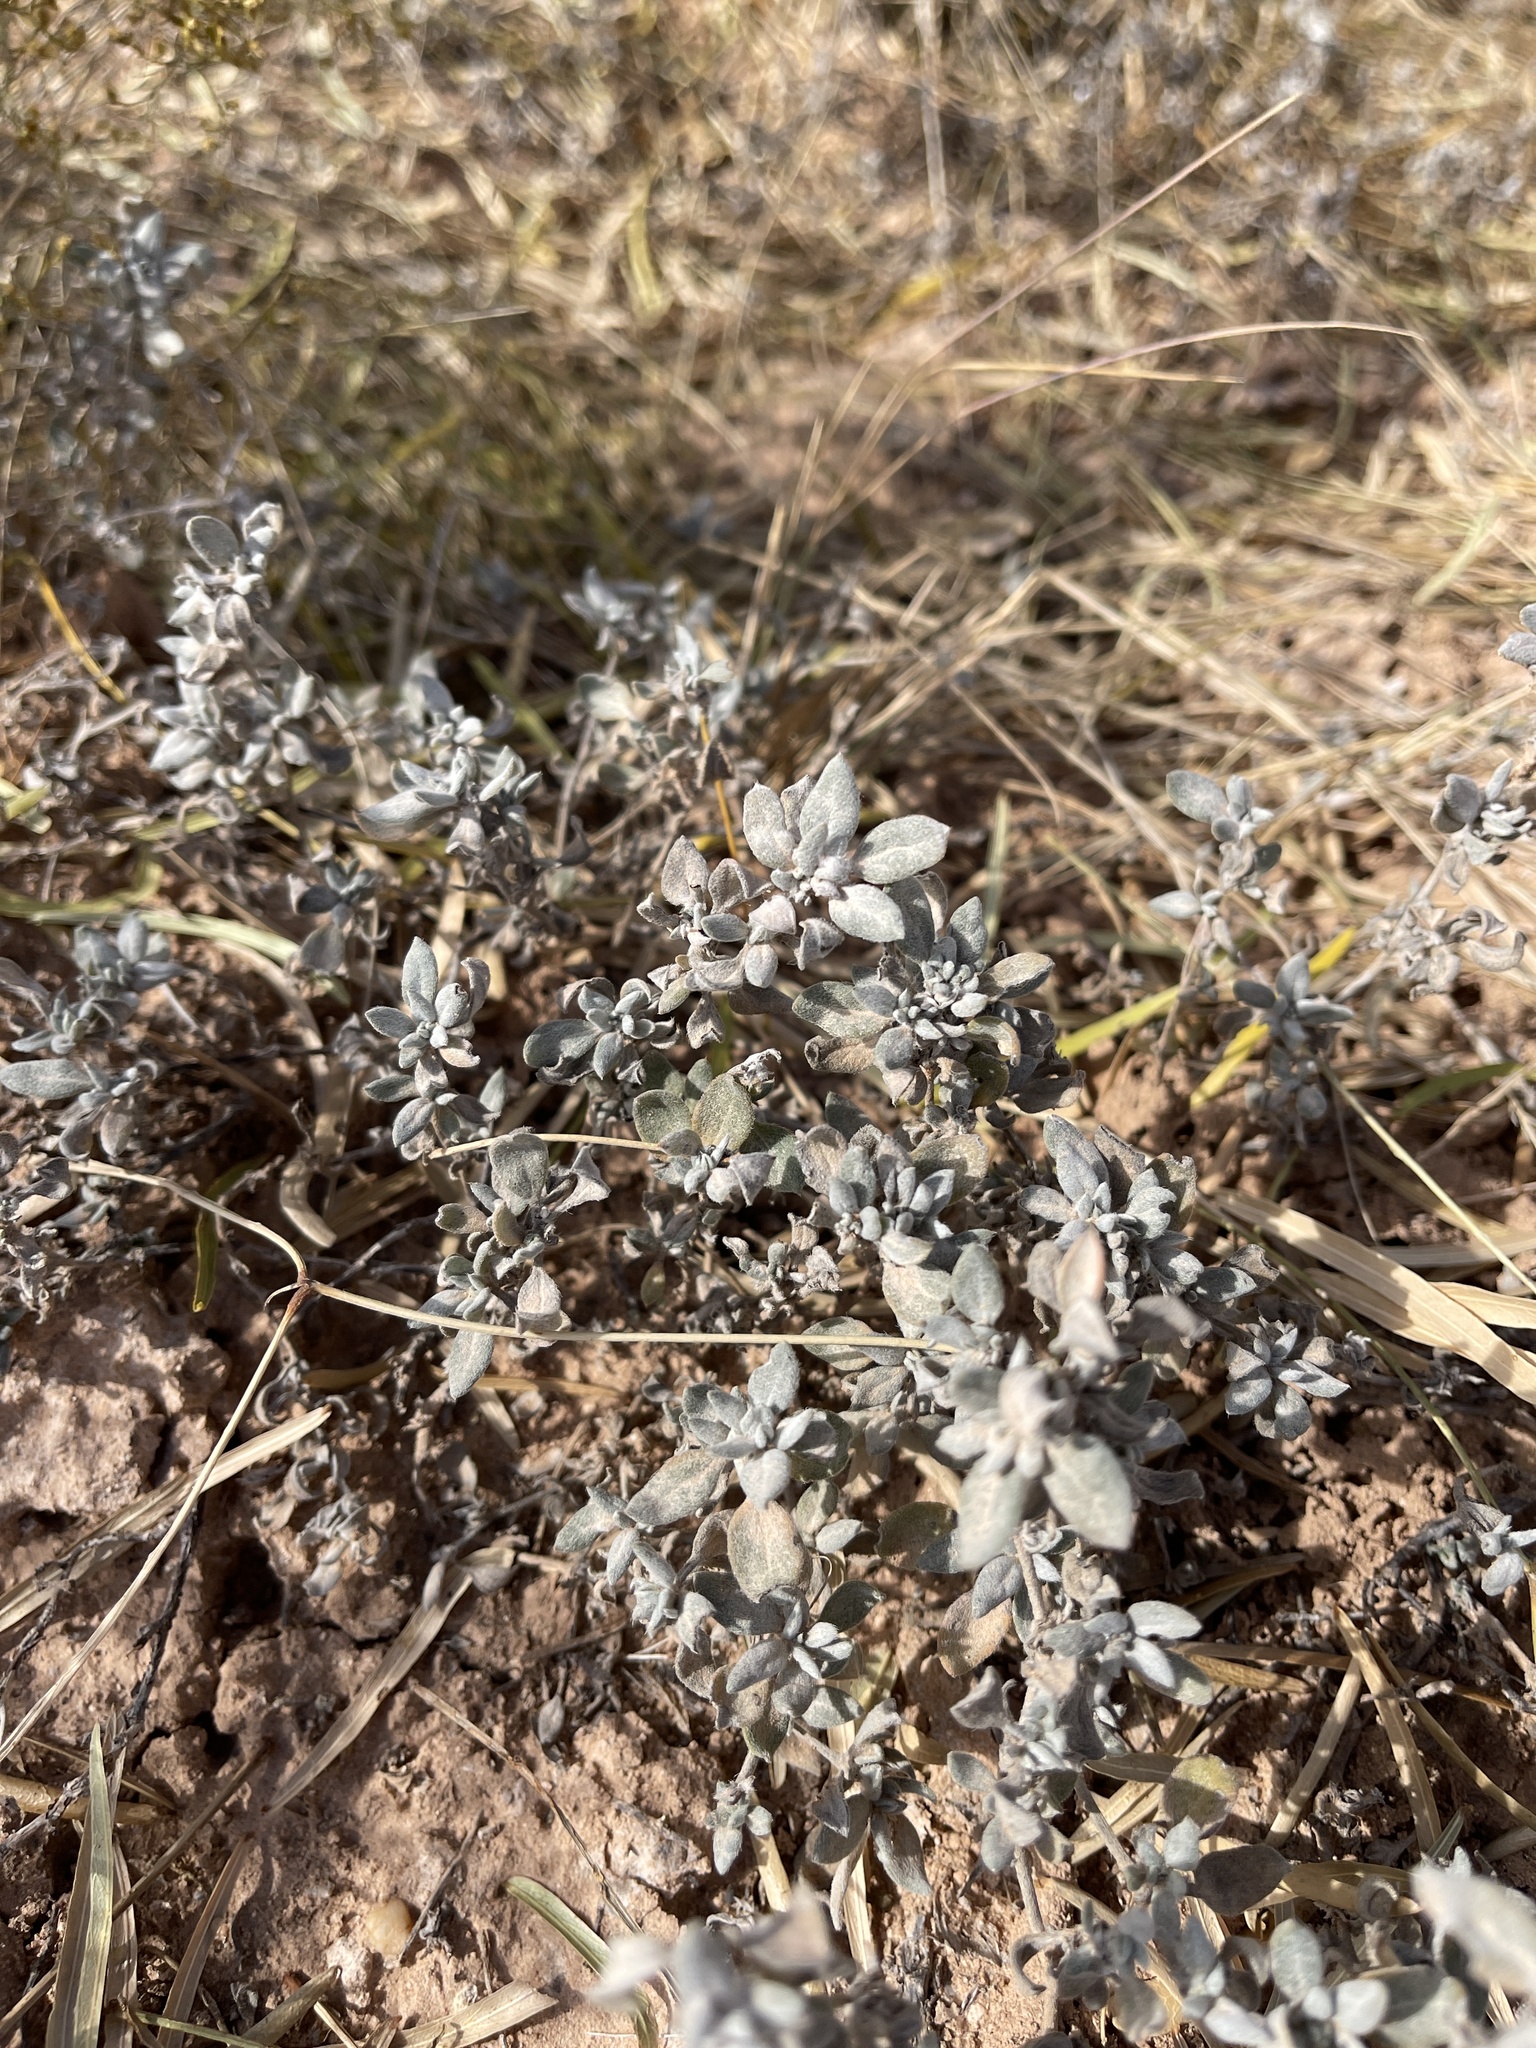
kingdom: Plantae
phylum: Tracheophyta
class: Magnoliopsida
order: Boraginales
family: Ehretiaceae
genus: Tiquilia
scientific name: Tiquilia canescens
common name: Hairy tiquilia
